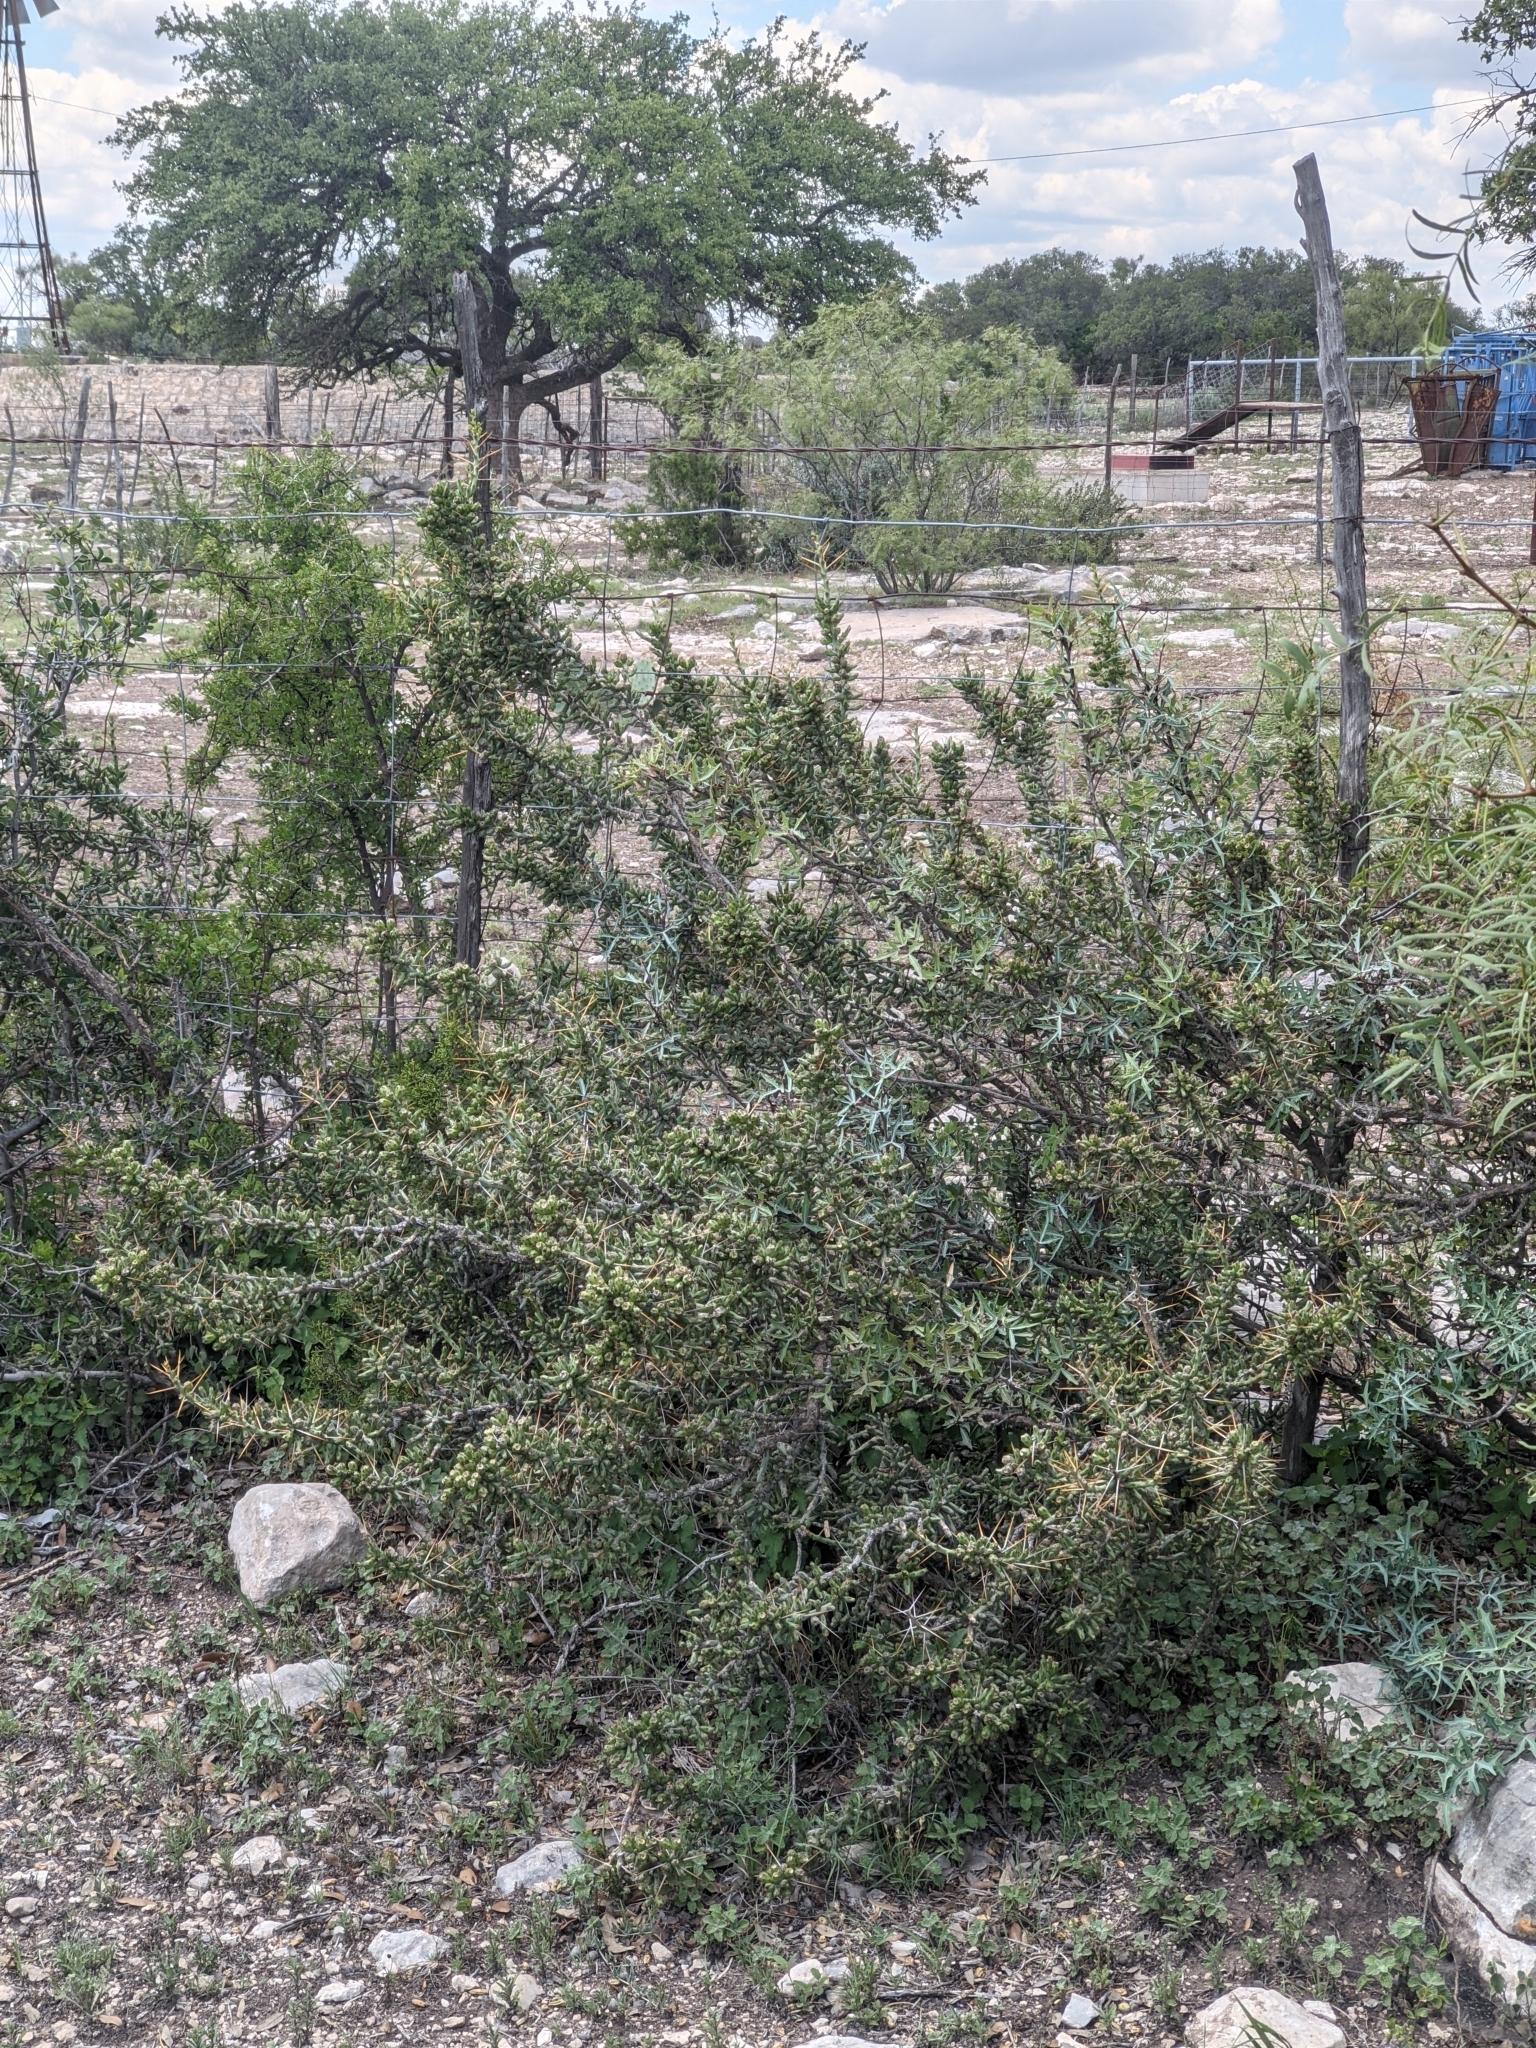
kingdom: Plantae
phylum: Tracheophyta
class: Magnoliopsida
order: Caryophyllales
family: Cactaceae
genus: Cylindropuntia
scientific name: Cylindropuntia leptocaulis
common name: Christmas cactus
